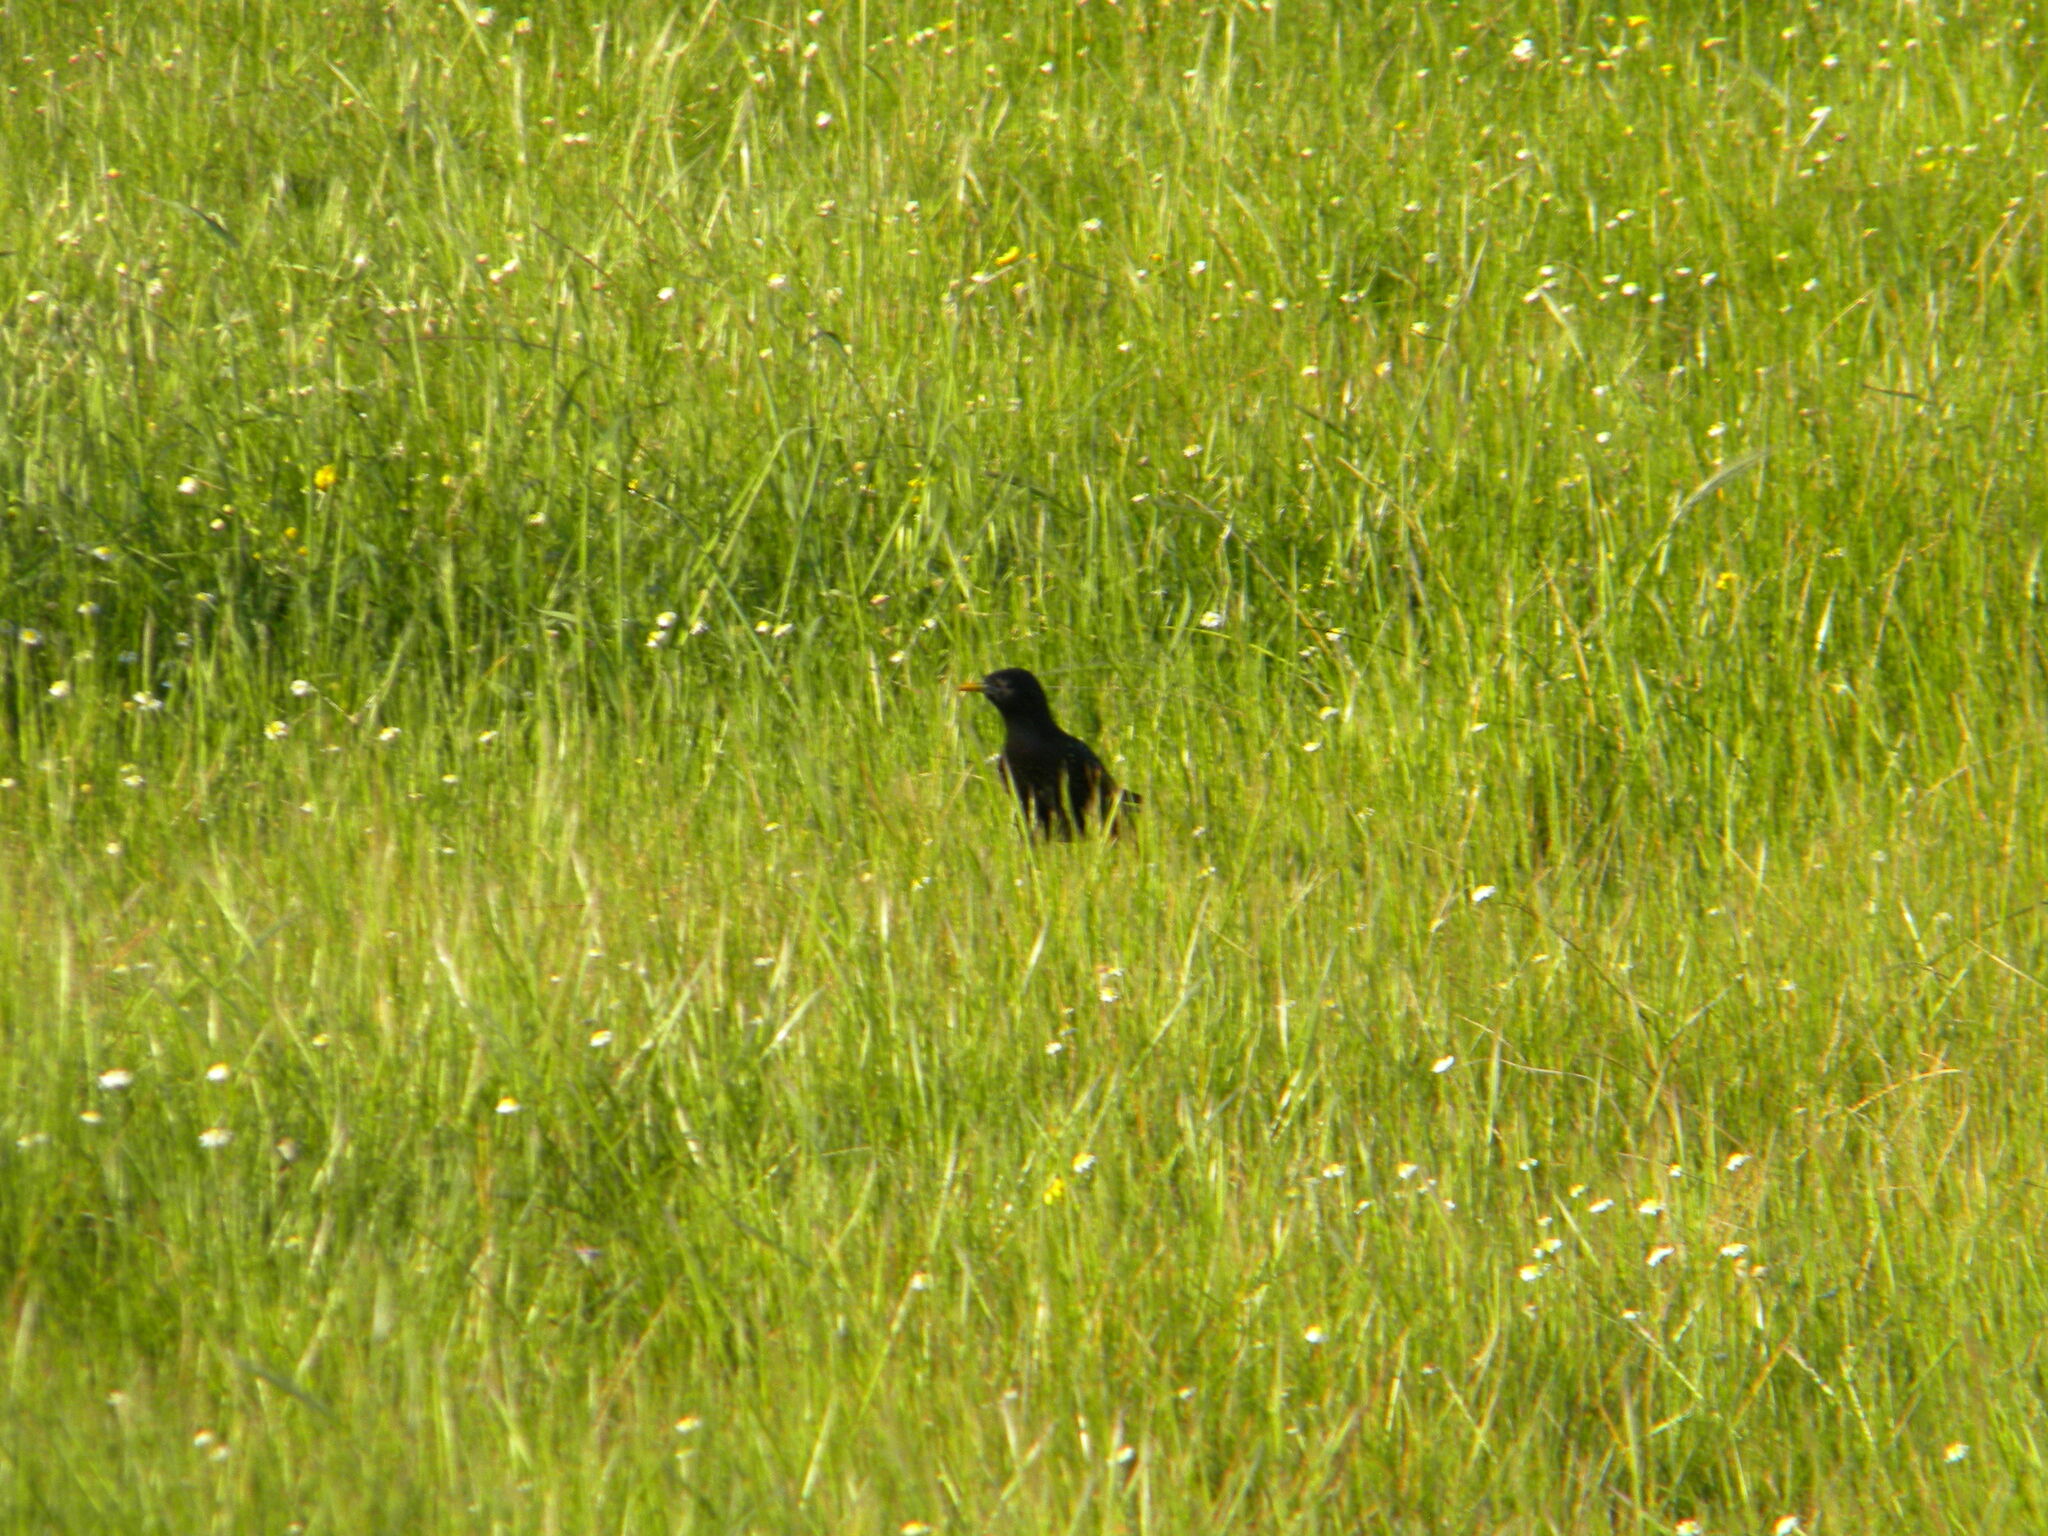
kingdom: Animalia
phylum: Chordata
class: Aves
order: Passeriformes
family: Sturnidae
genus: Sturnus
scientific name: Sturnus vulgaris
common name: Common starling
